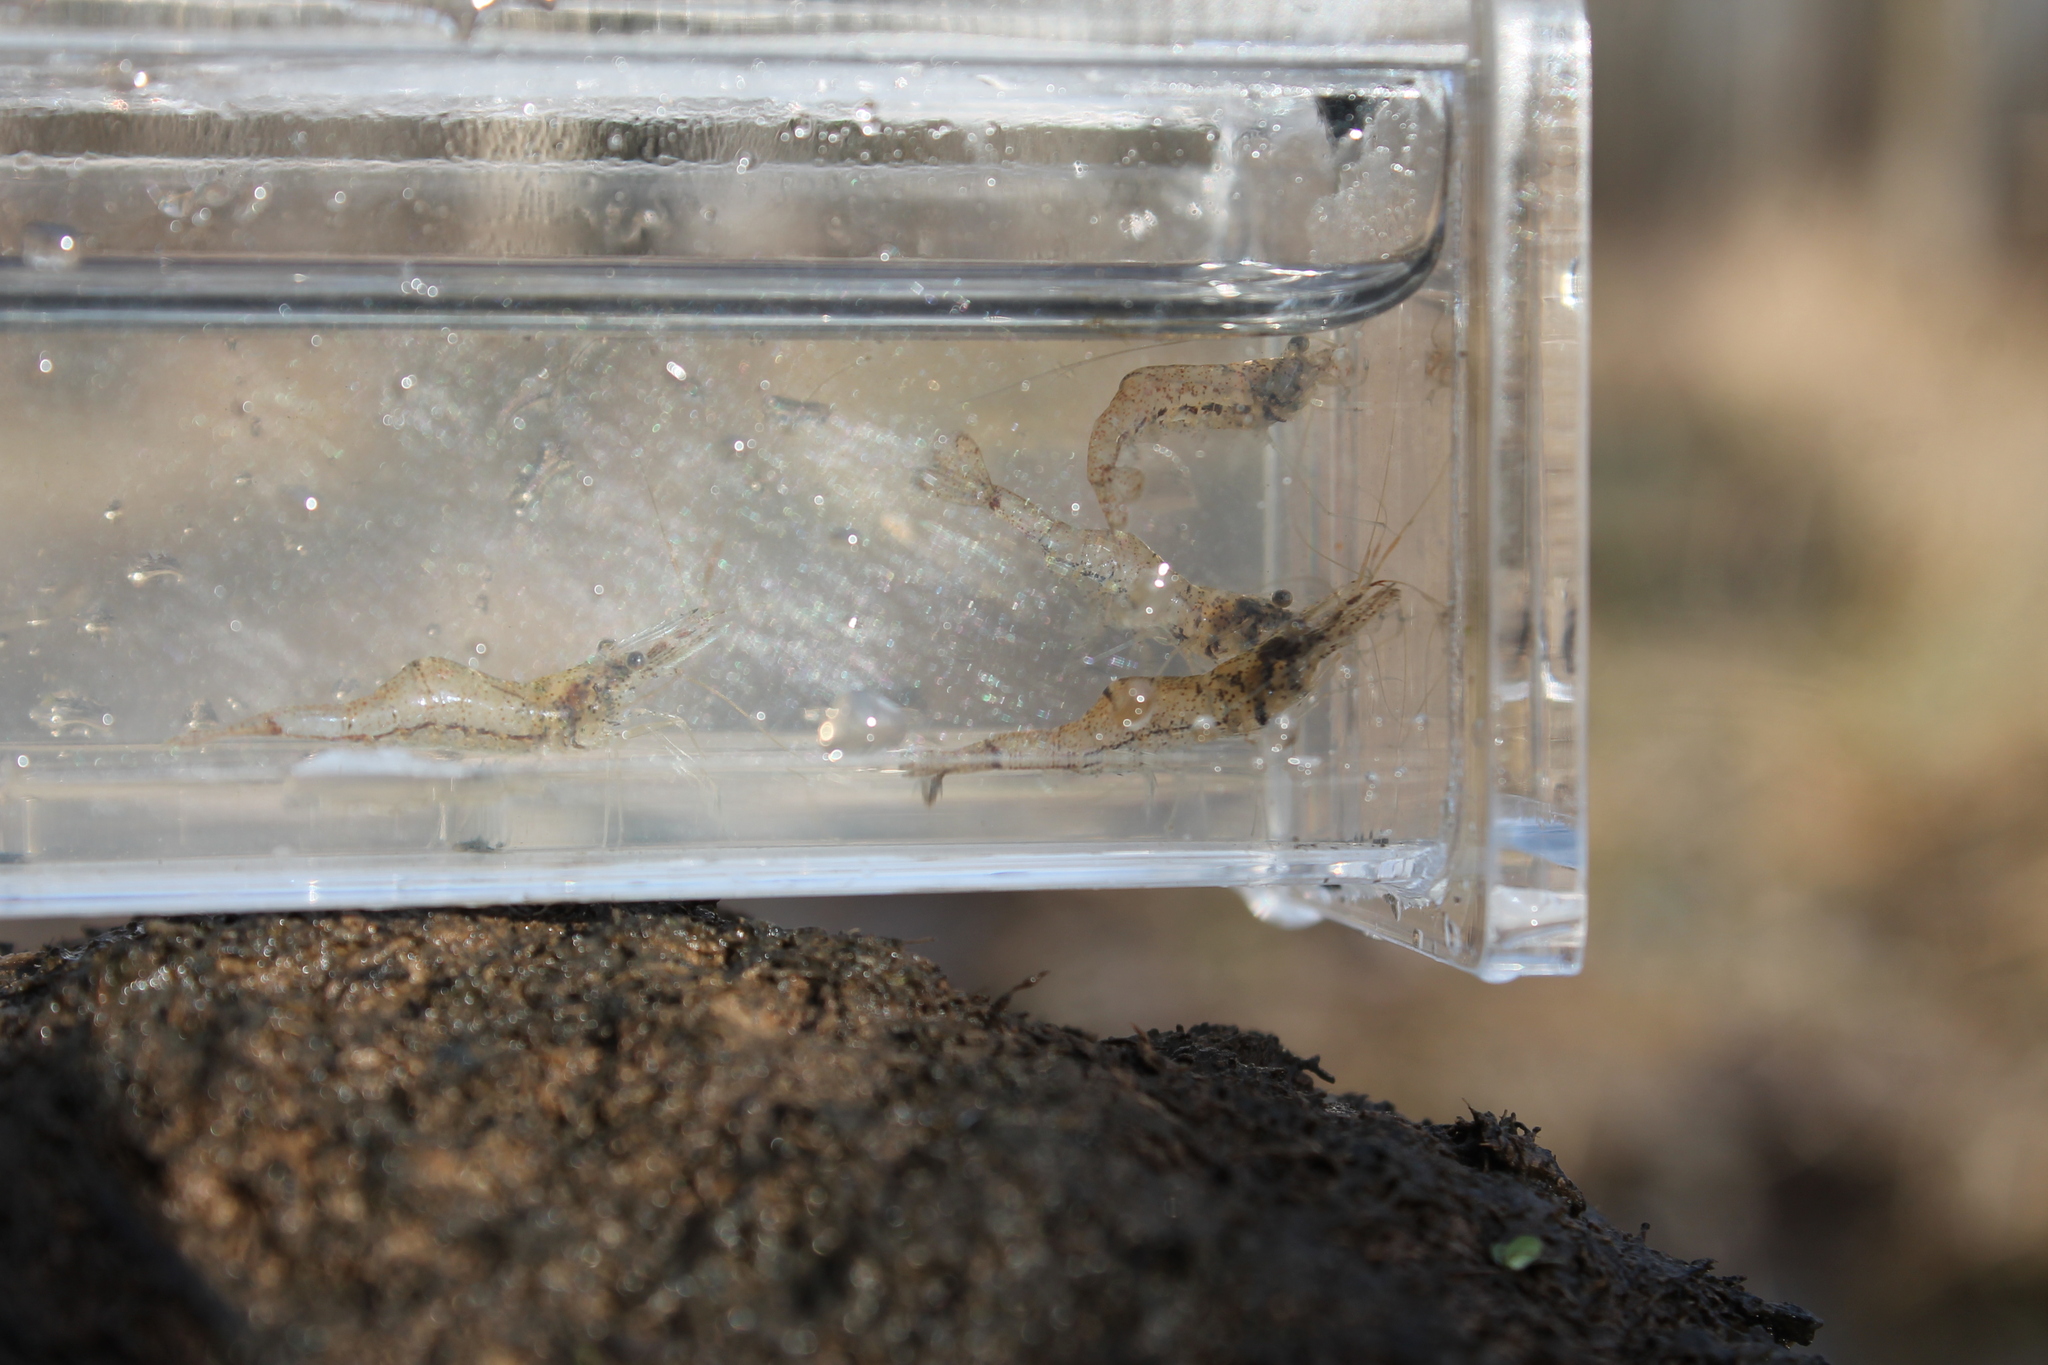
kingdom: Animalia
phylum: Arthropoda
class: Malacostraca
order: Decapoda
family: Palaemonidae
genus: Palaemon
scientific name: Palaemon kadiakensis
